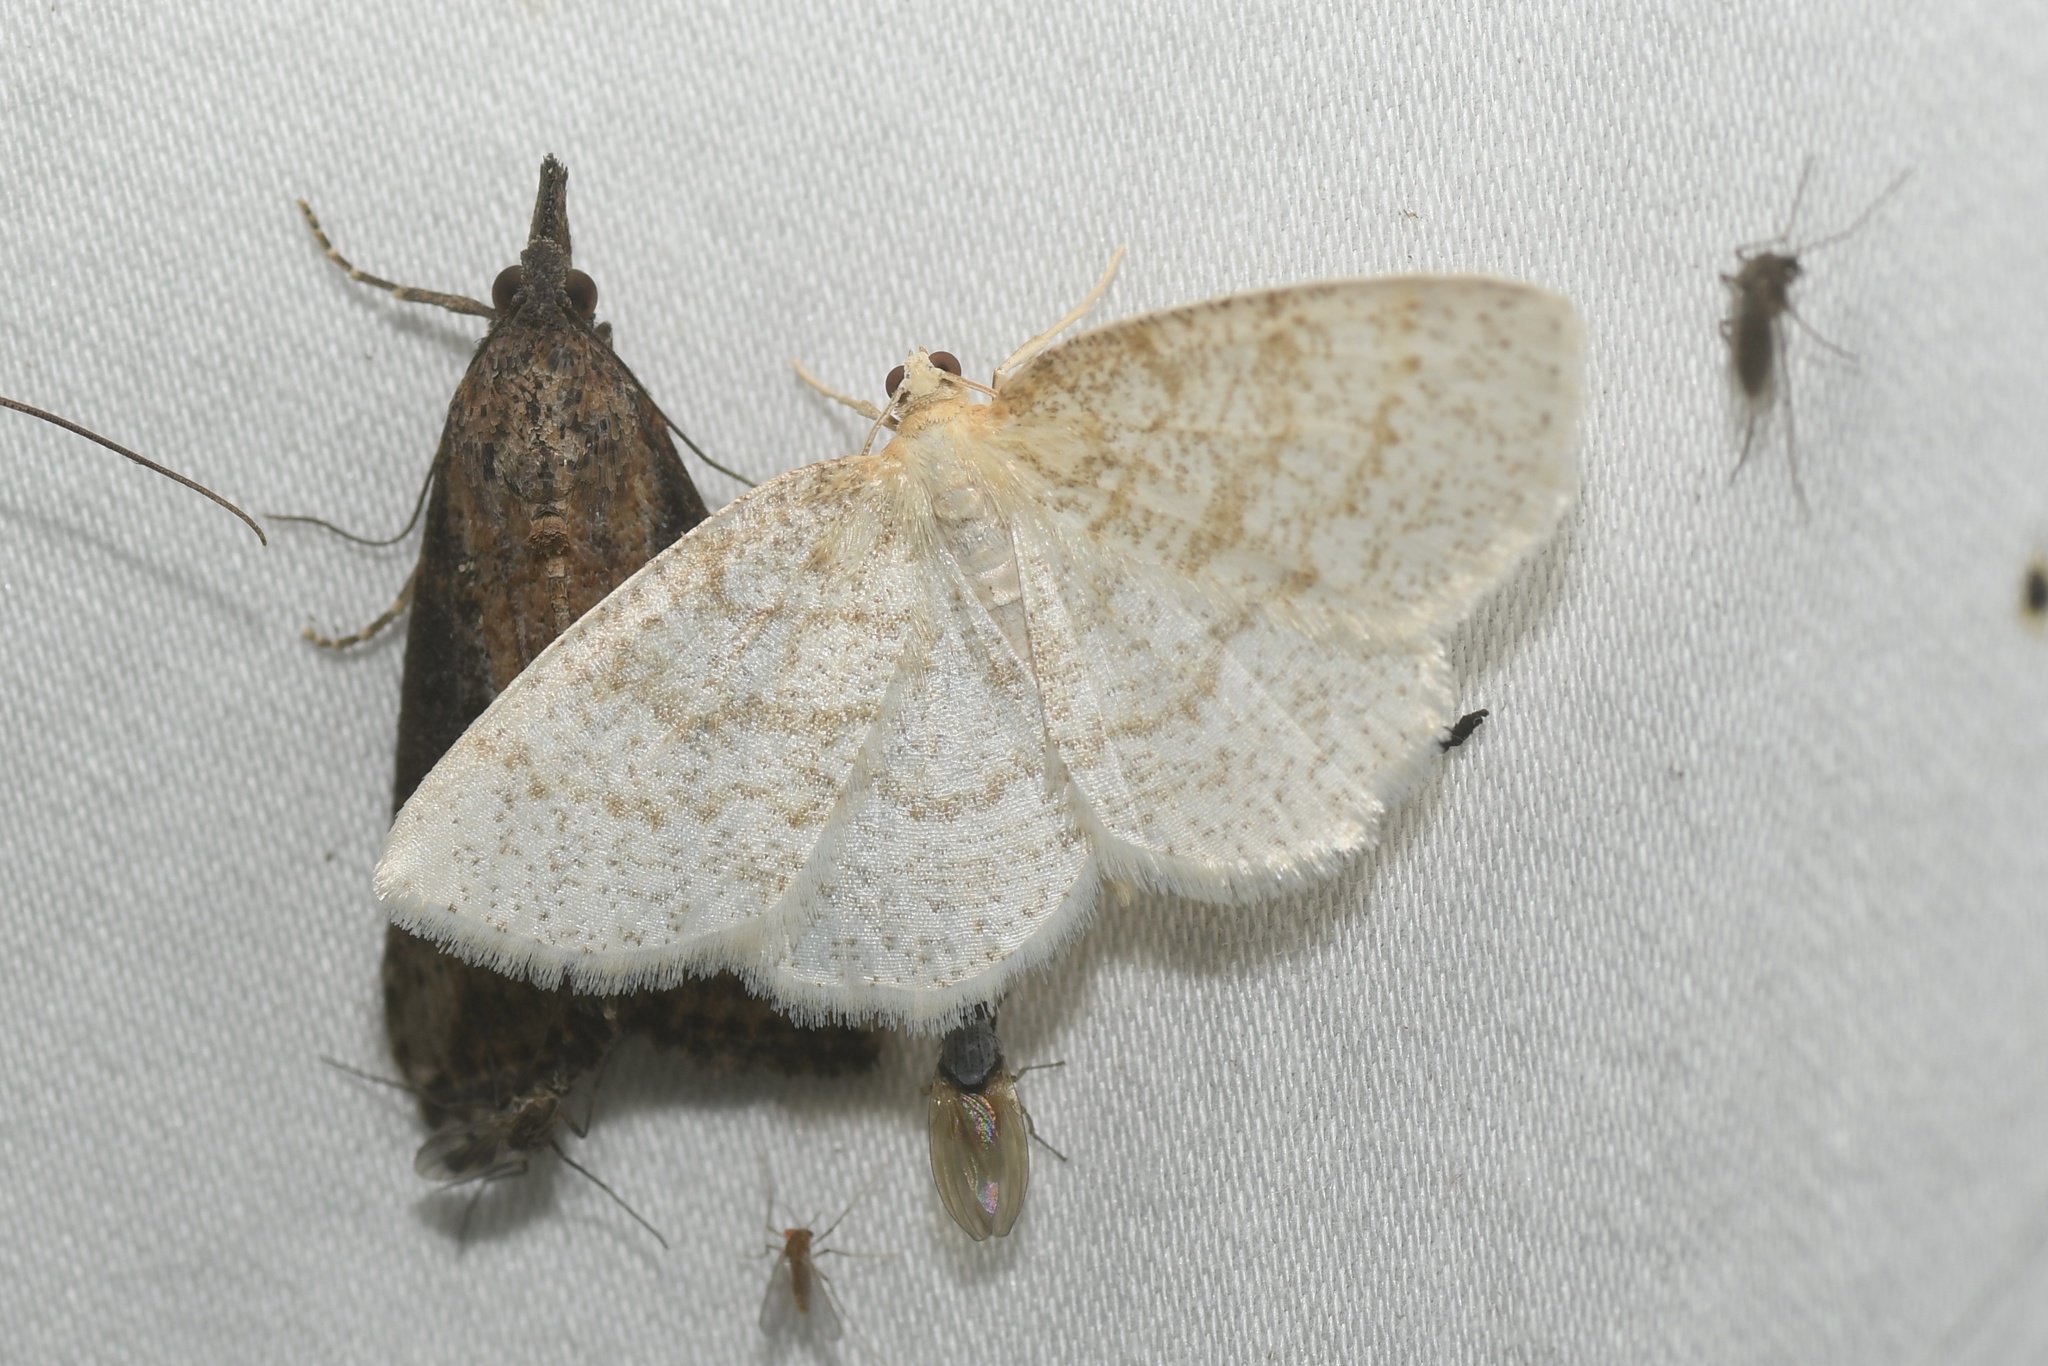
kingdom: Animalia
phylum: Arthropoda
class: Insecta
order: Lepidoptera
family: Geometridae
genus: Cabera
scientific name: Cabera erythemaria
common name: Yellow-dusted cream moth
